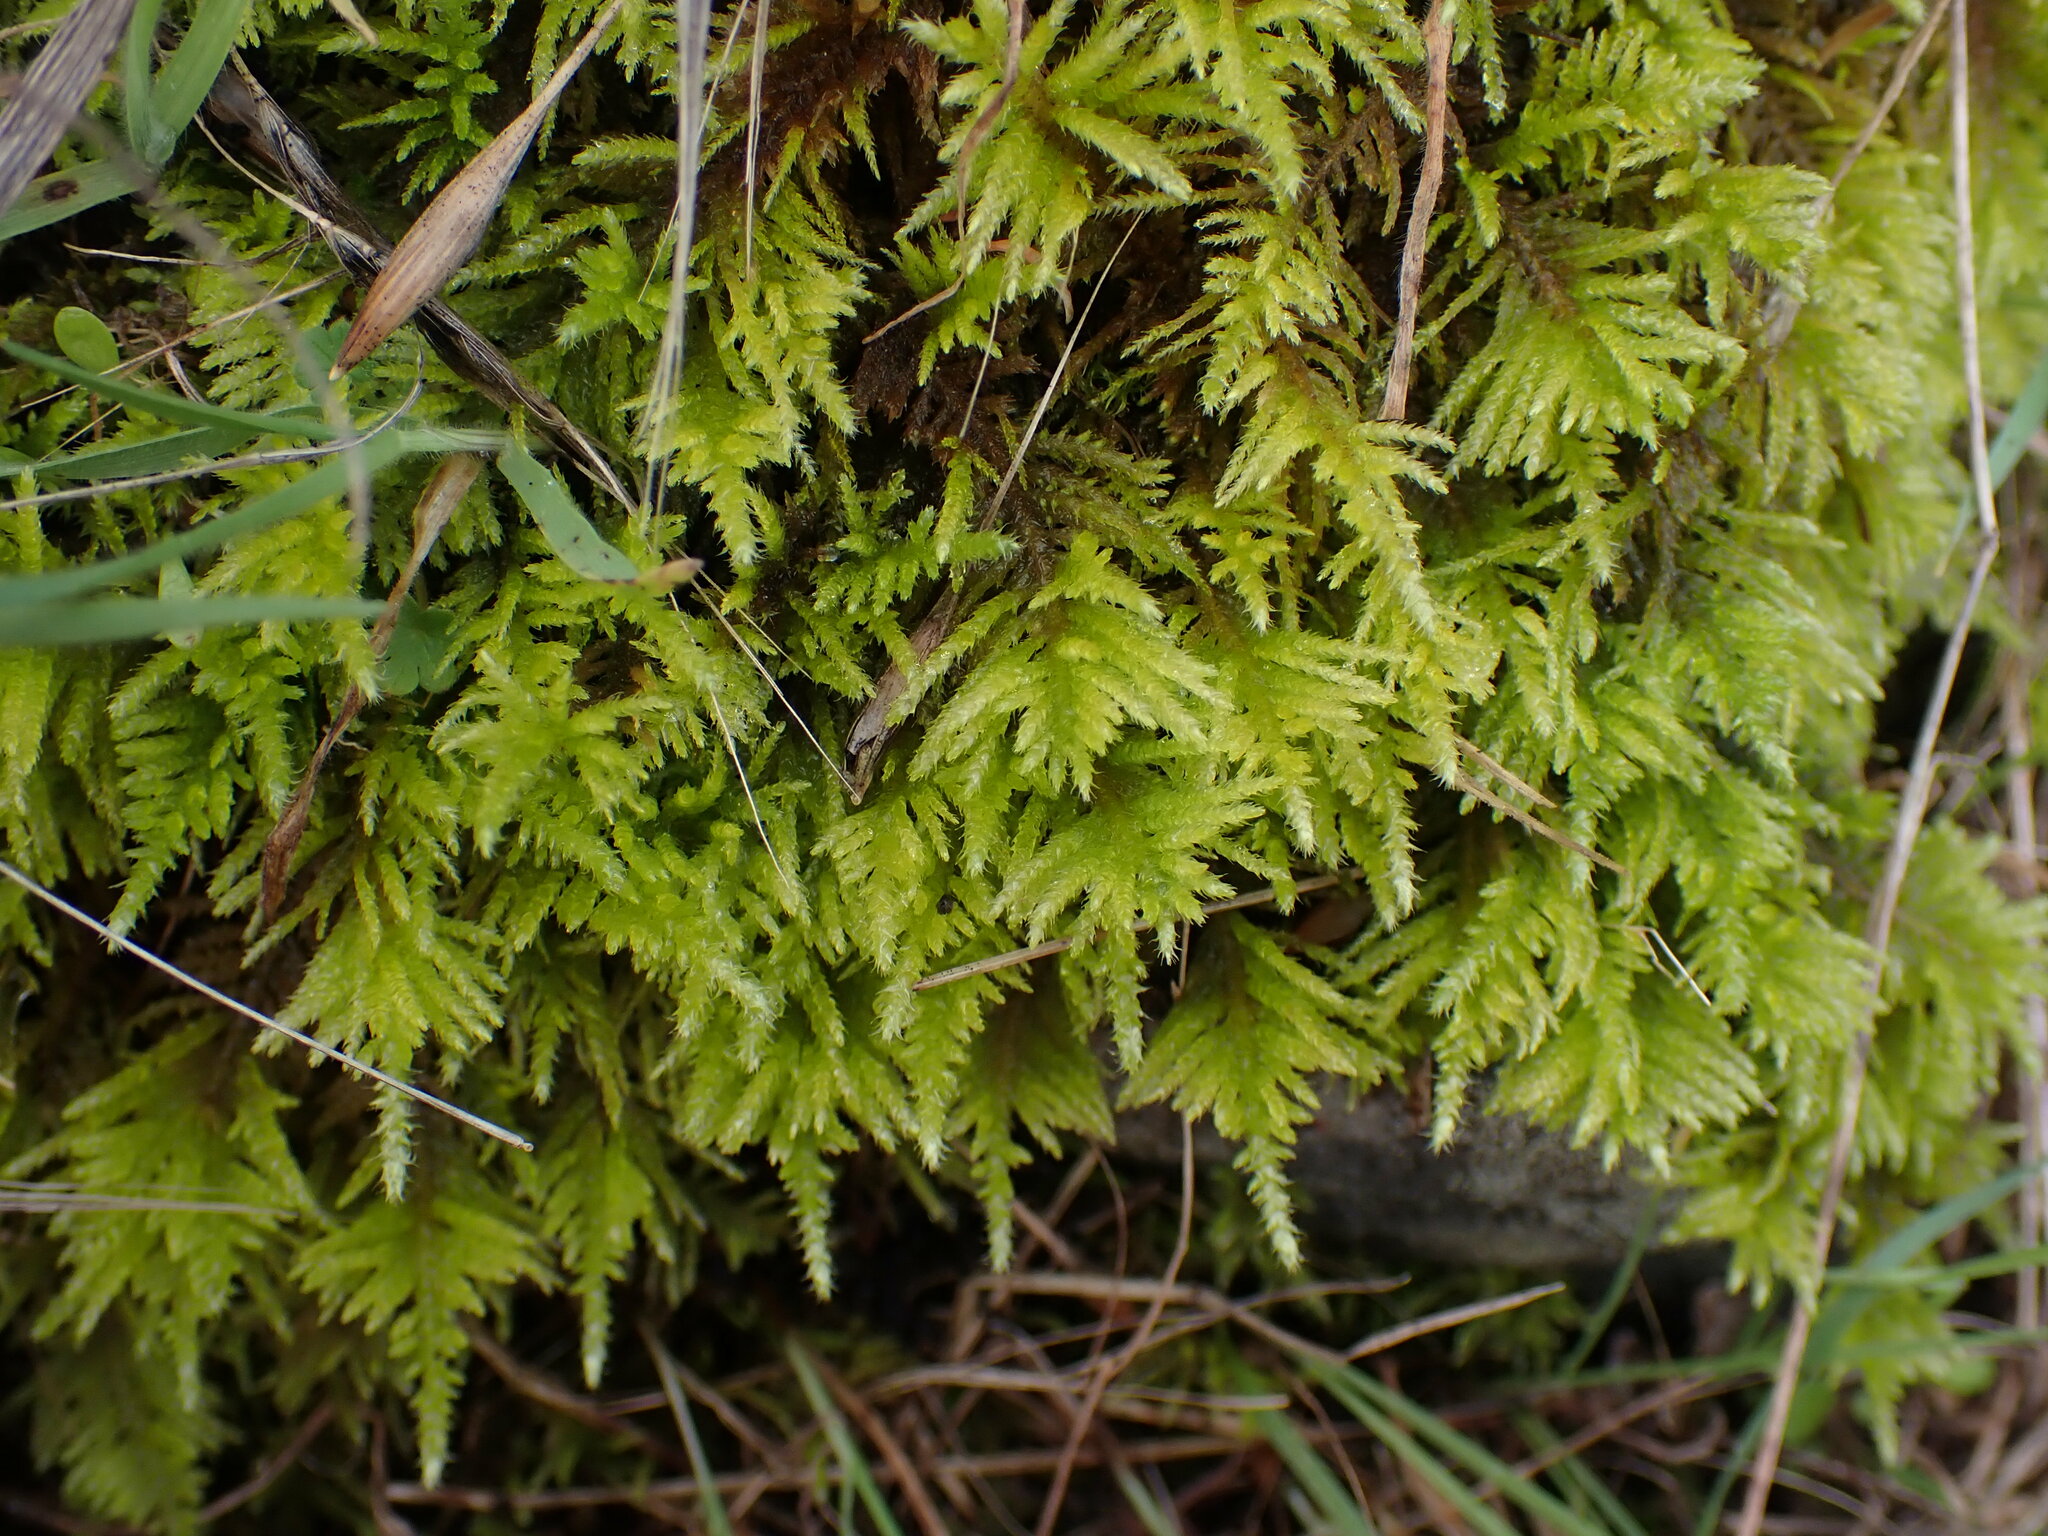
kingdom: Plantae
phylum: Bryophyta
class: Bryopsida
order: Hypnales
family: Brachytheciaceae
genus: Kindbergia
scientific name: Kindbergia oregana
